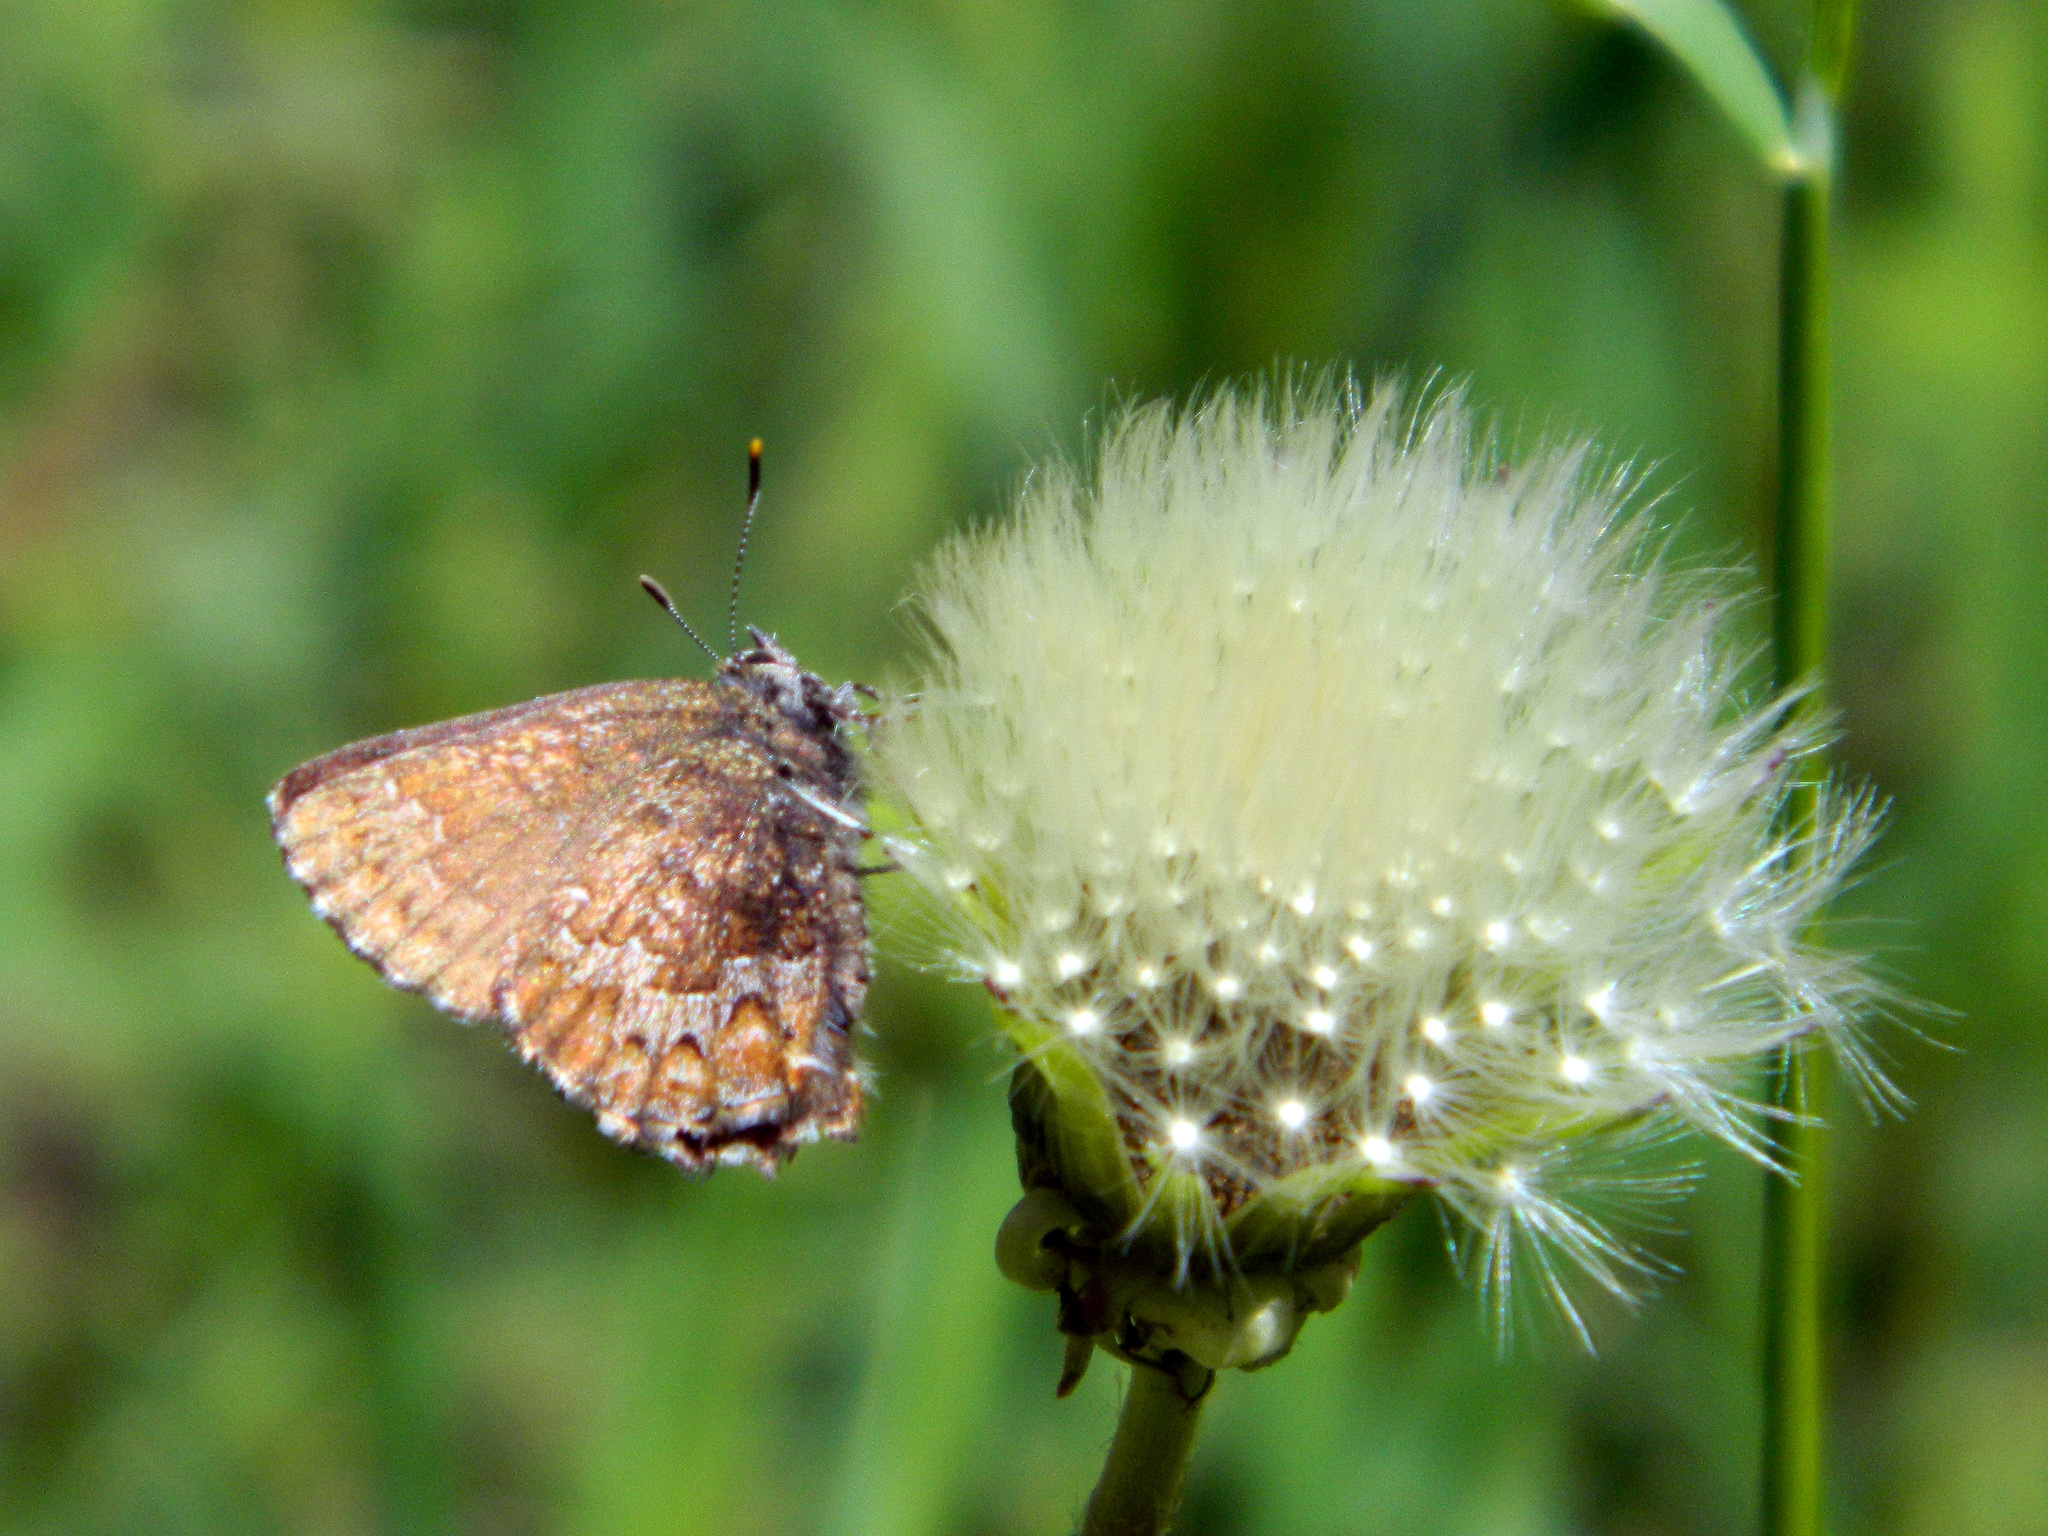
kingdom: Animalia
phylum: Arthropoda
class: Insecta
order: Lepidoptera
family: Lycaenidae
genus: Incisalia
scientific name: Incisalia niphon
